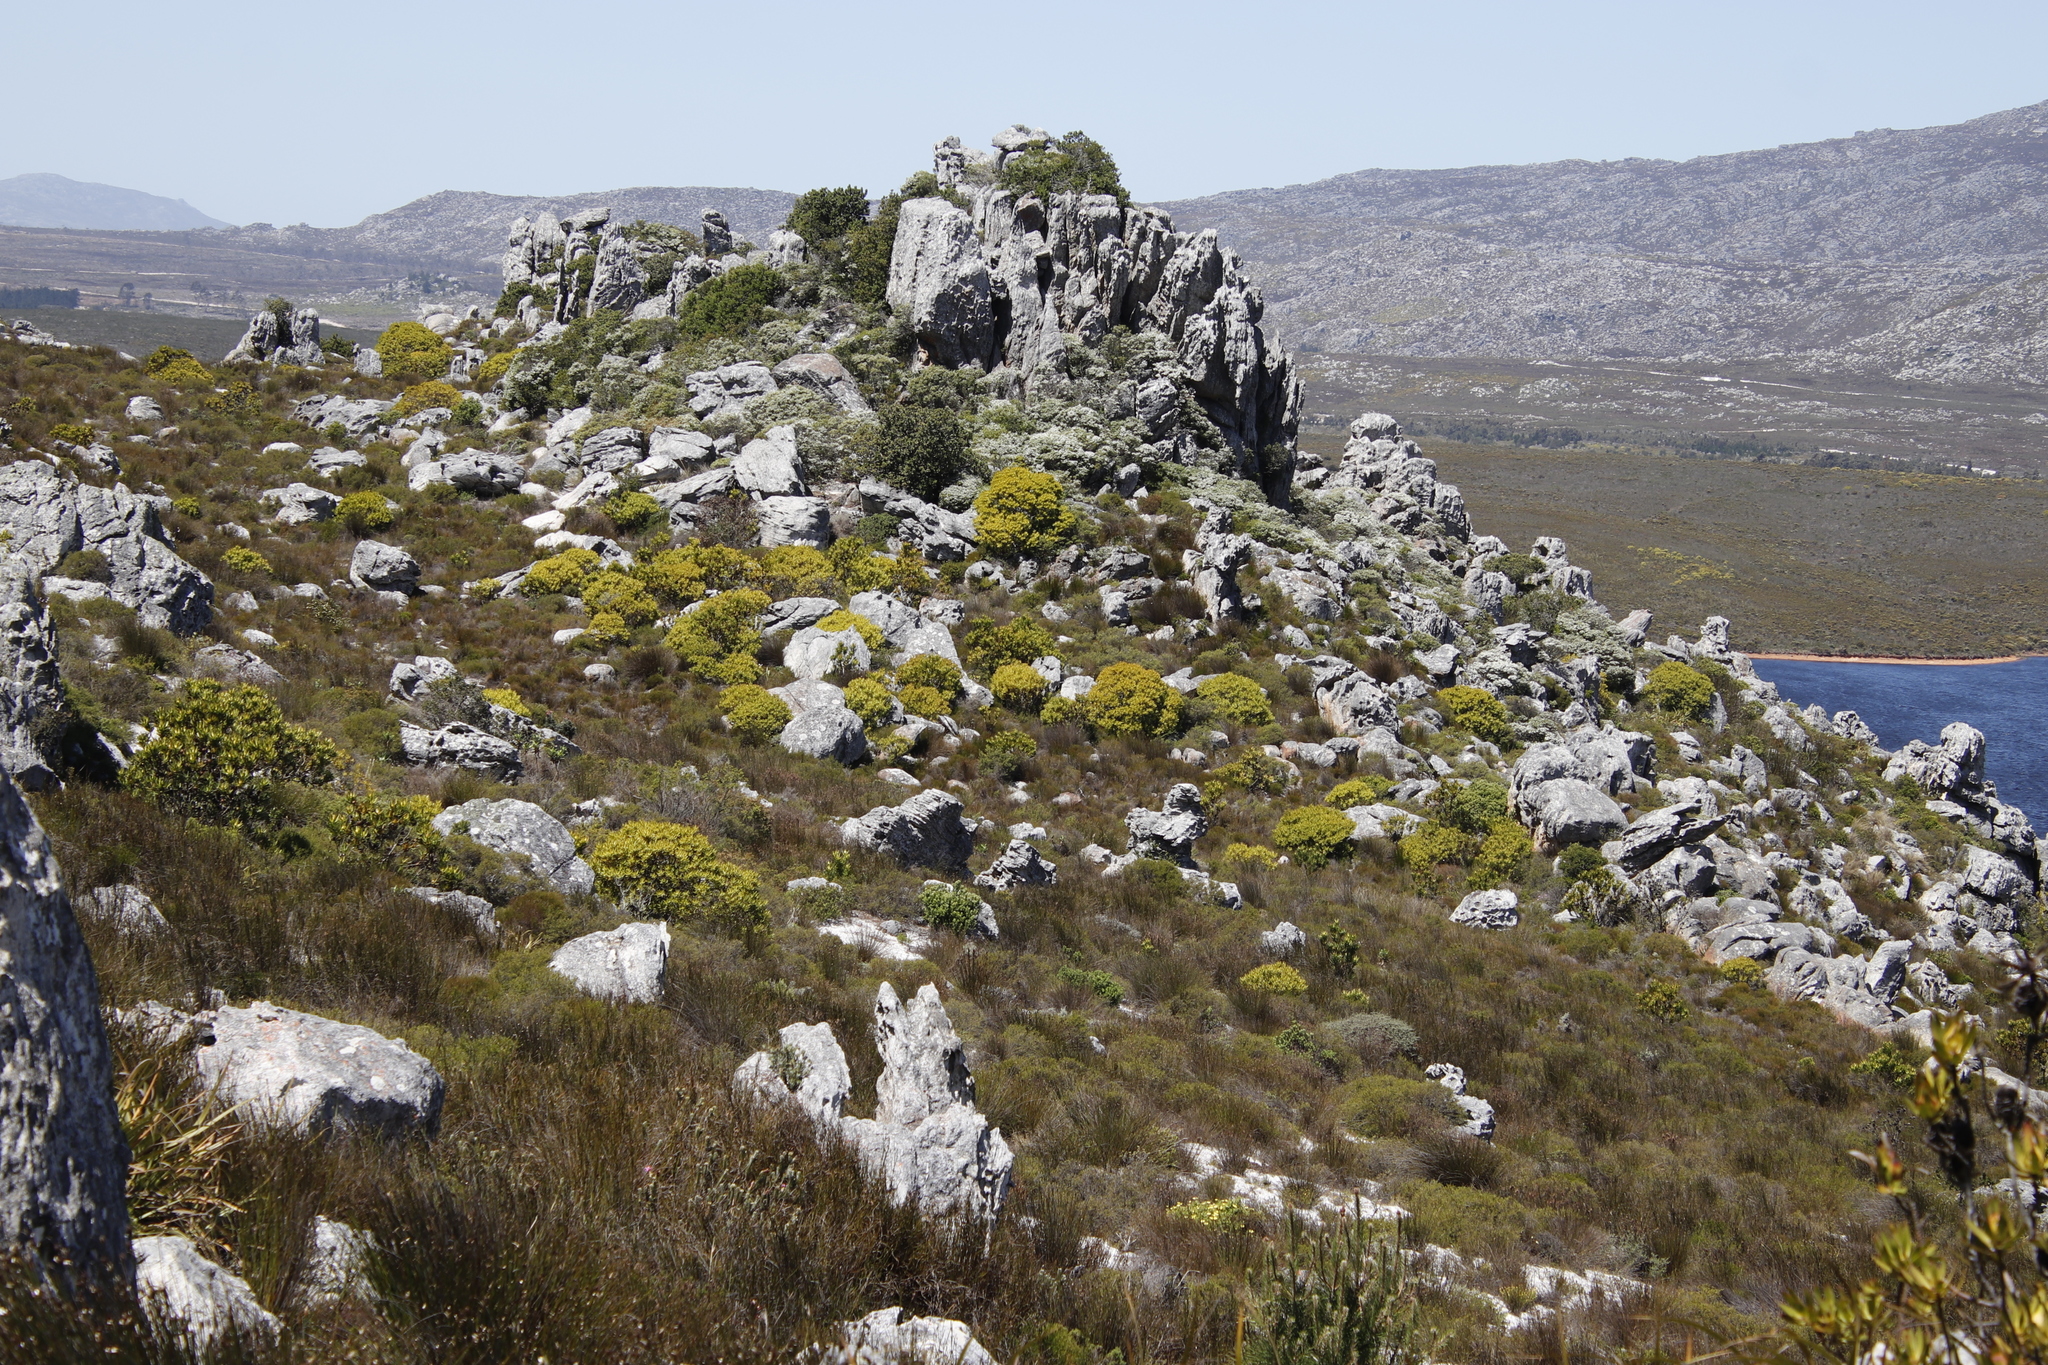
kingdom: Plantae
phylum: Tracheophyta
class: Magnoliopsida
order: Proteales
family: Proteaceae
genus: Leucadendron
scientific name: Leucadendron laureolum
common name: Golden sunshinebush
